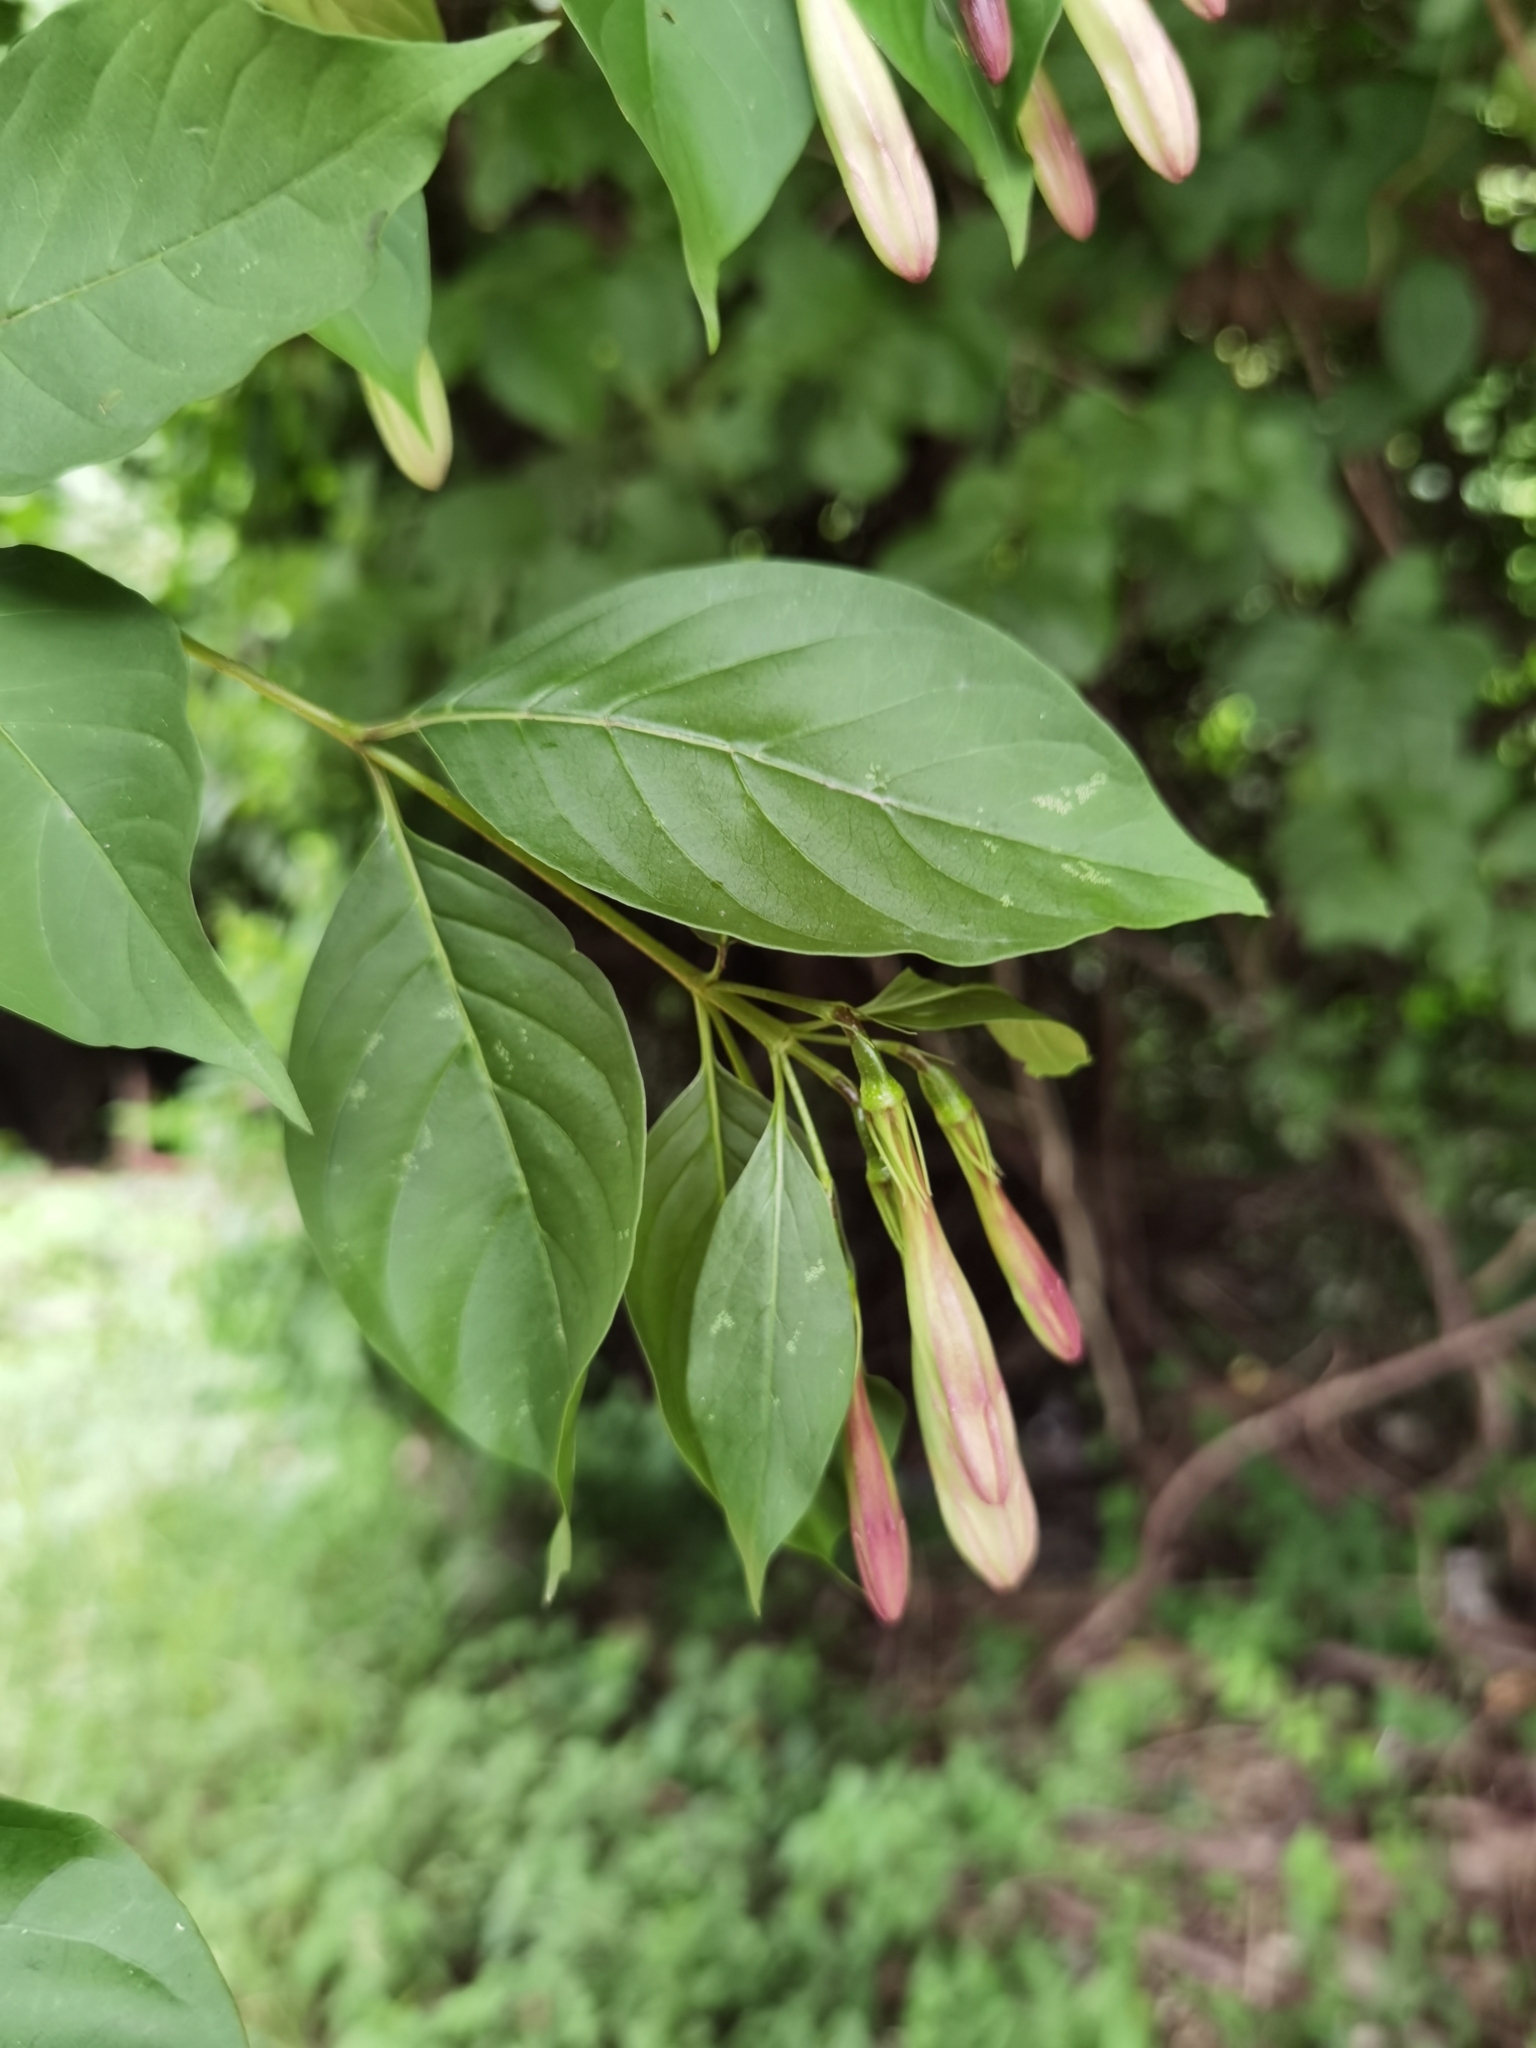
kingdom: Plantae
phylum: Tracheophyta
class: Magnoliopsida
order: Gentianales
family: Rubiaceae
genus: Coutarea
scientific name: Coutarea hexandra
